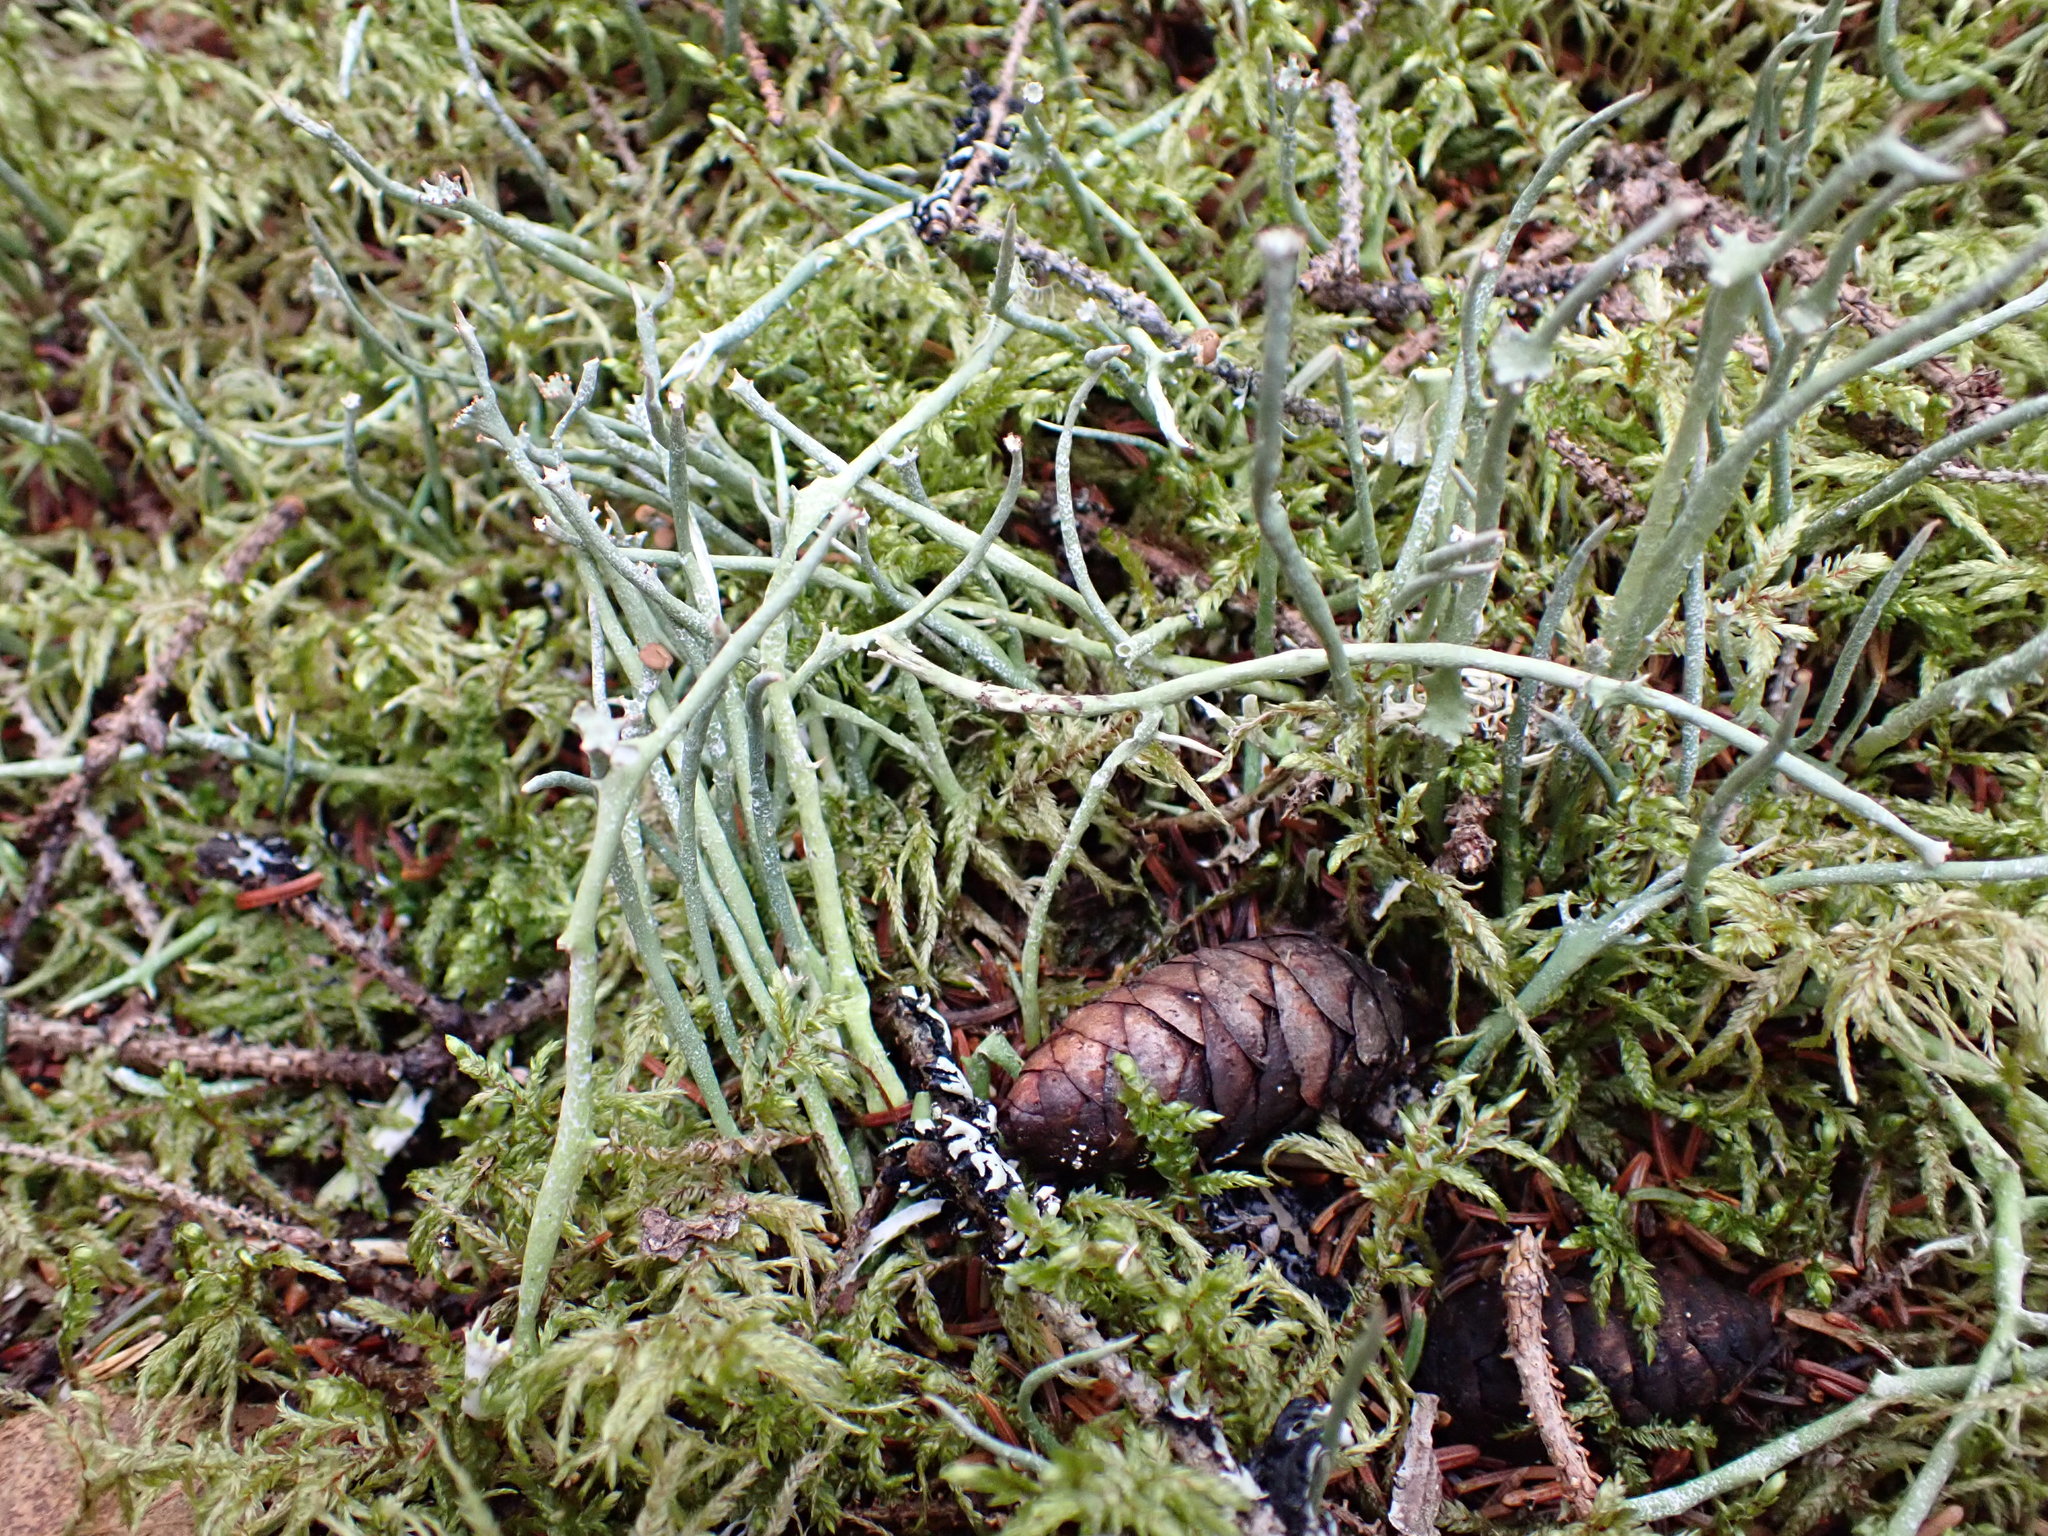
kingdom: Fungi
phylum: Ascomycota
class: Lecanoromycetes
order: Lecanorales
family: Cladoniaceae
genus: Cladonia
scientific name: Cladonia maxima
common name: Giant cladonia lichen
